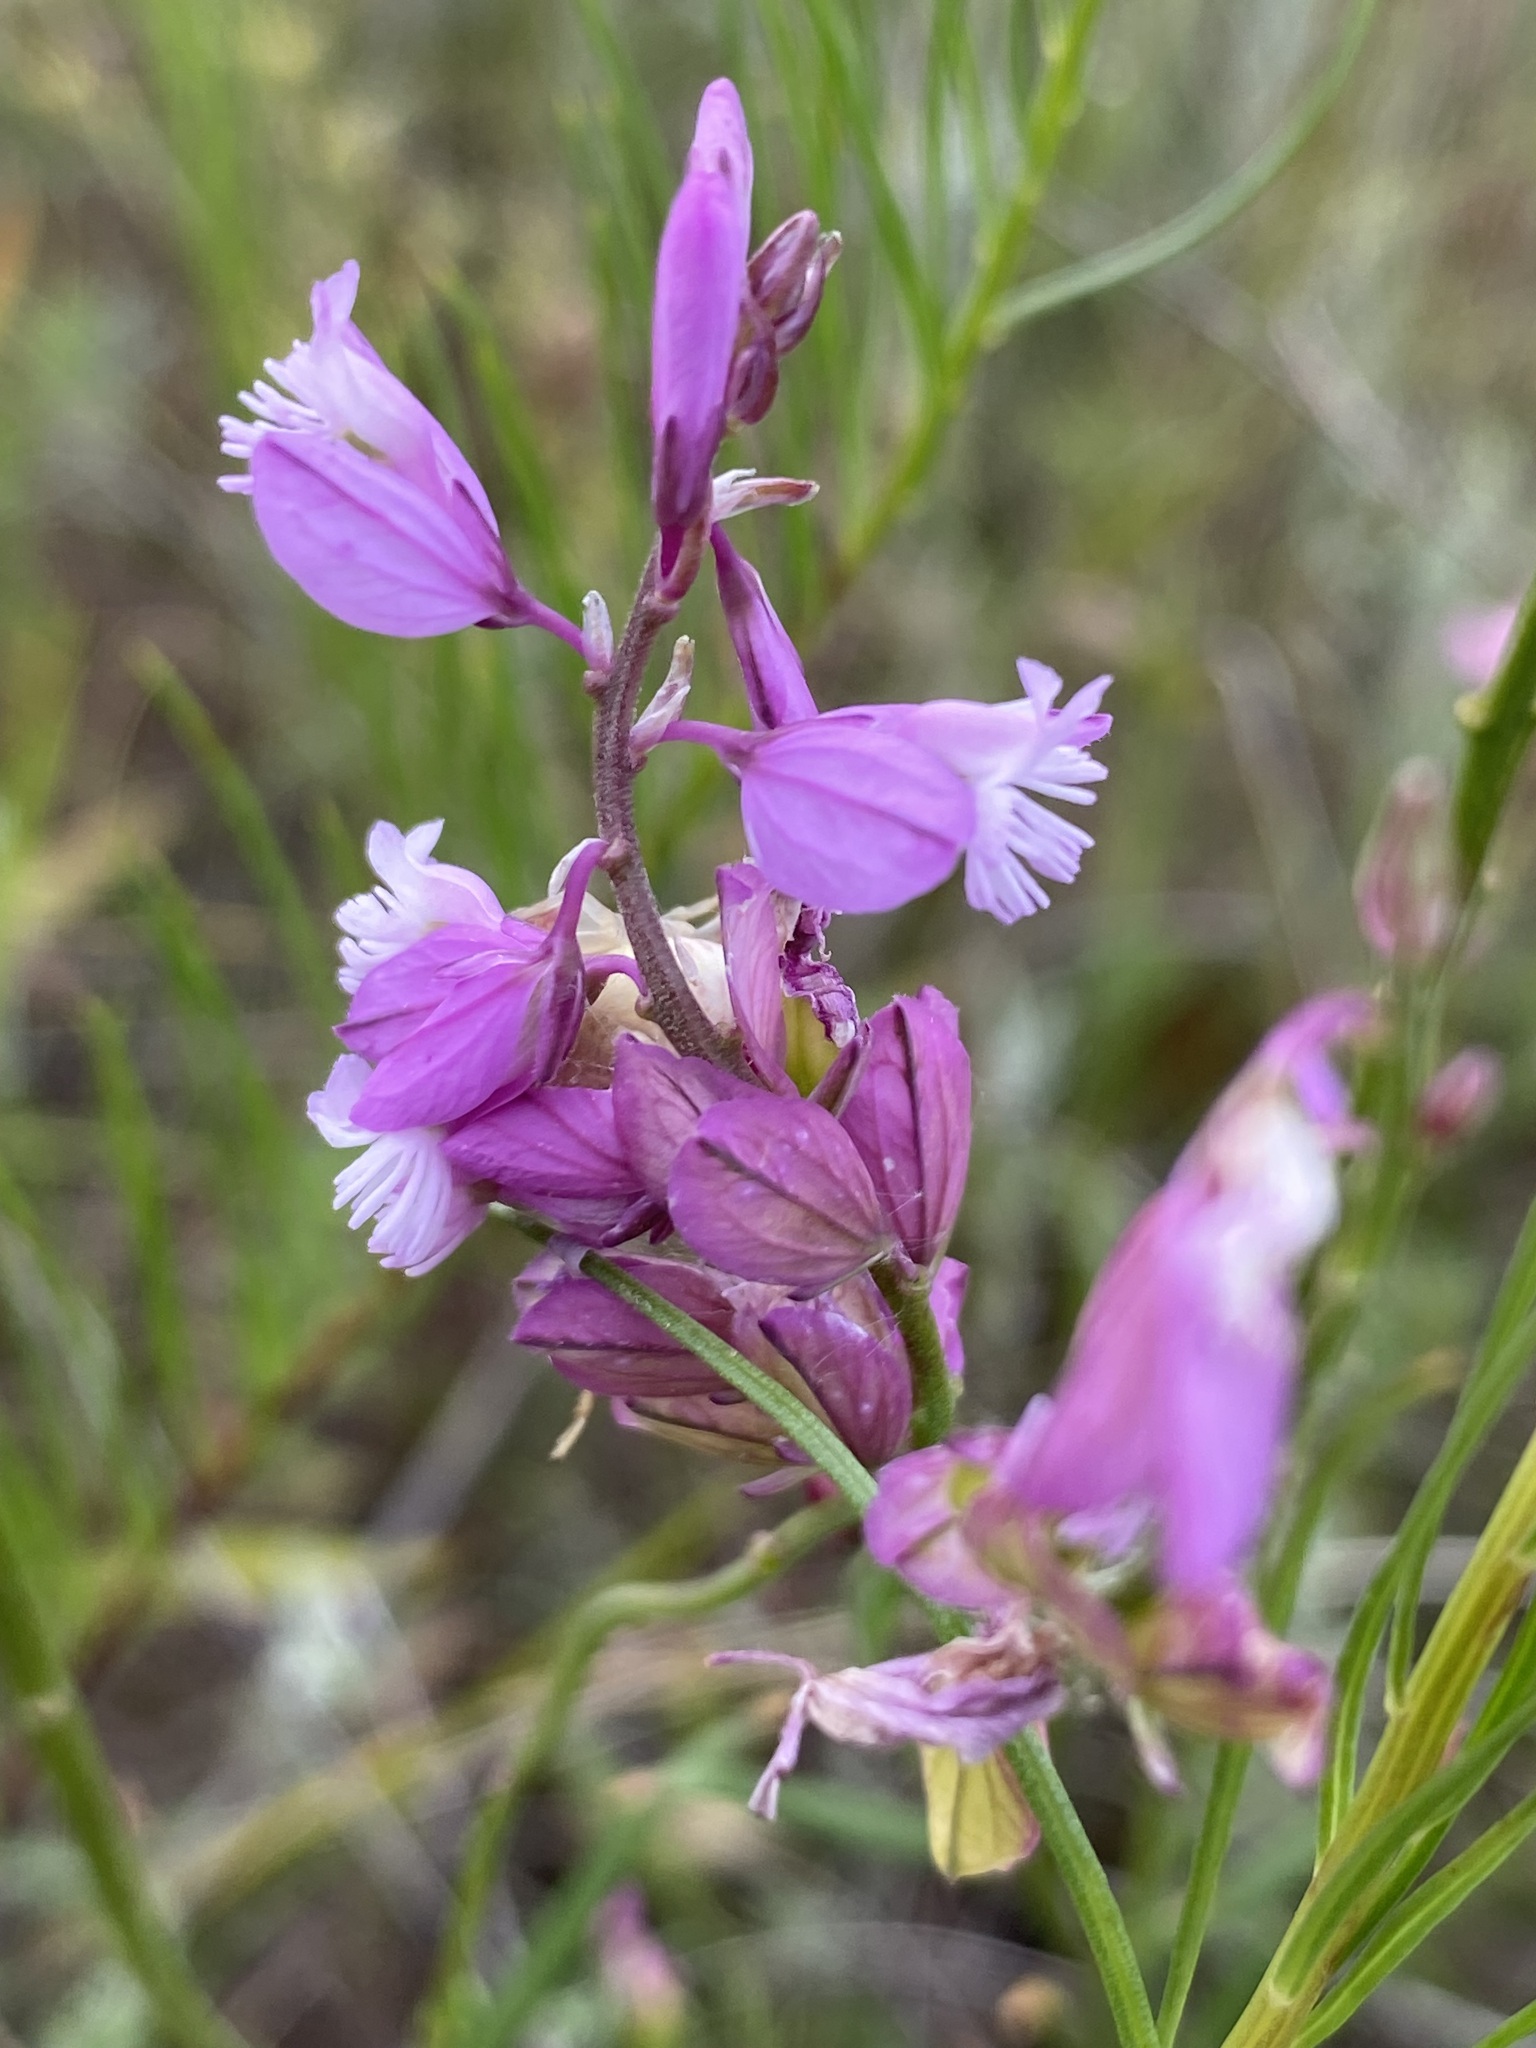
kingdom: Plantae
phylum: Tracheophyta
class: Magnoliopsida
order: Fabales
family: Polygalaceae
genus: Polygala
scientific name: Polygala nicaeensis
